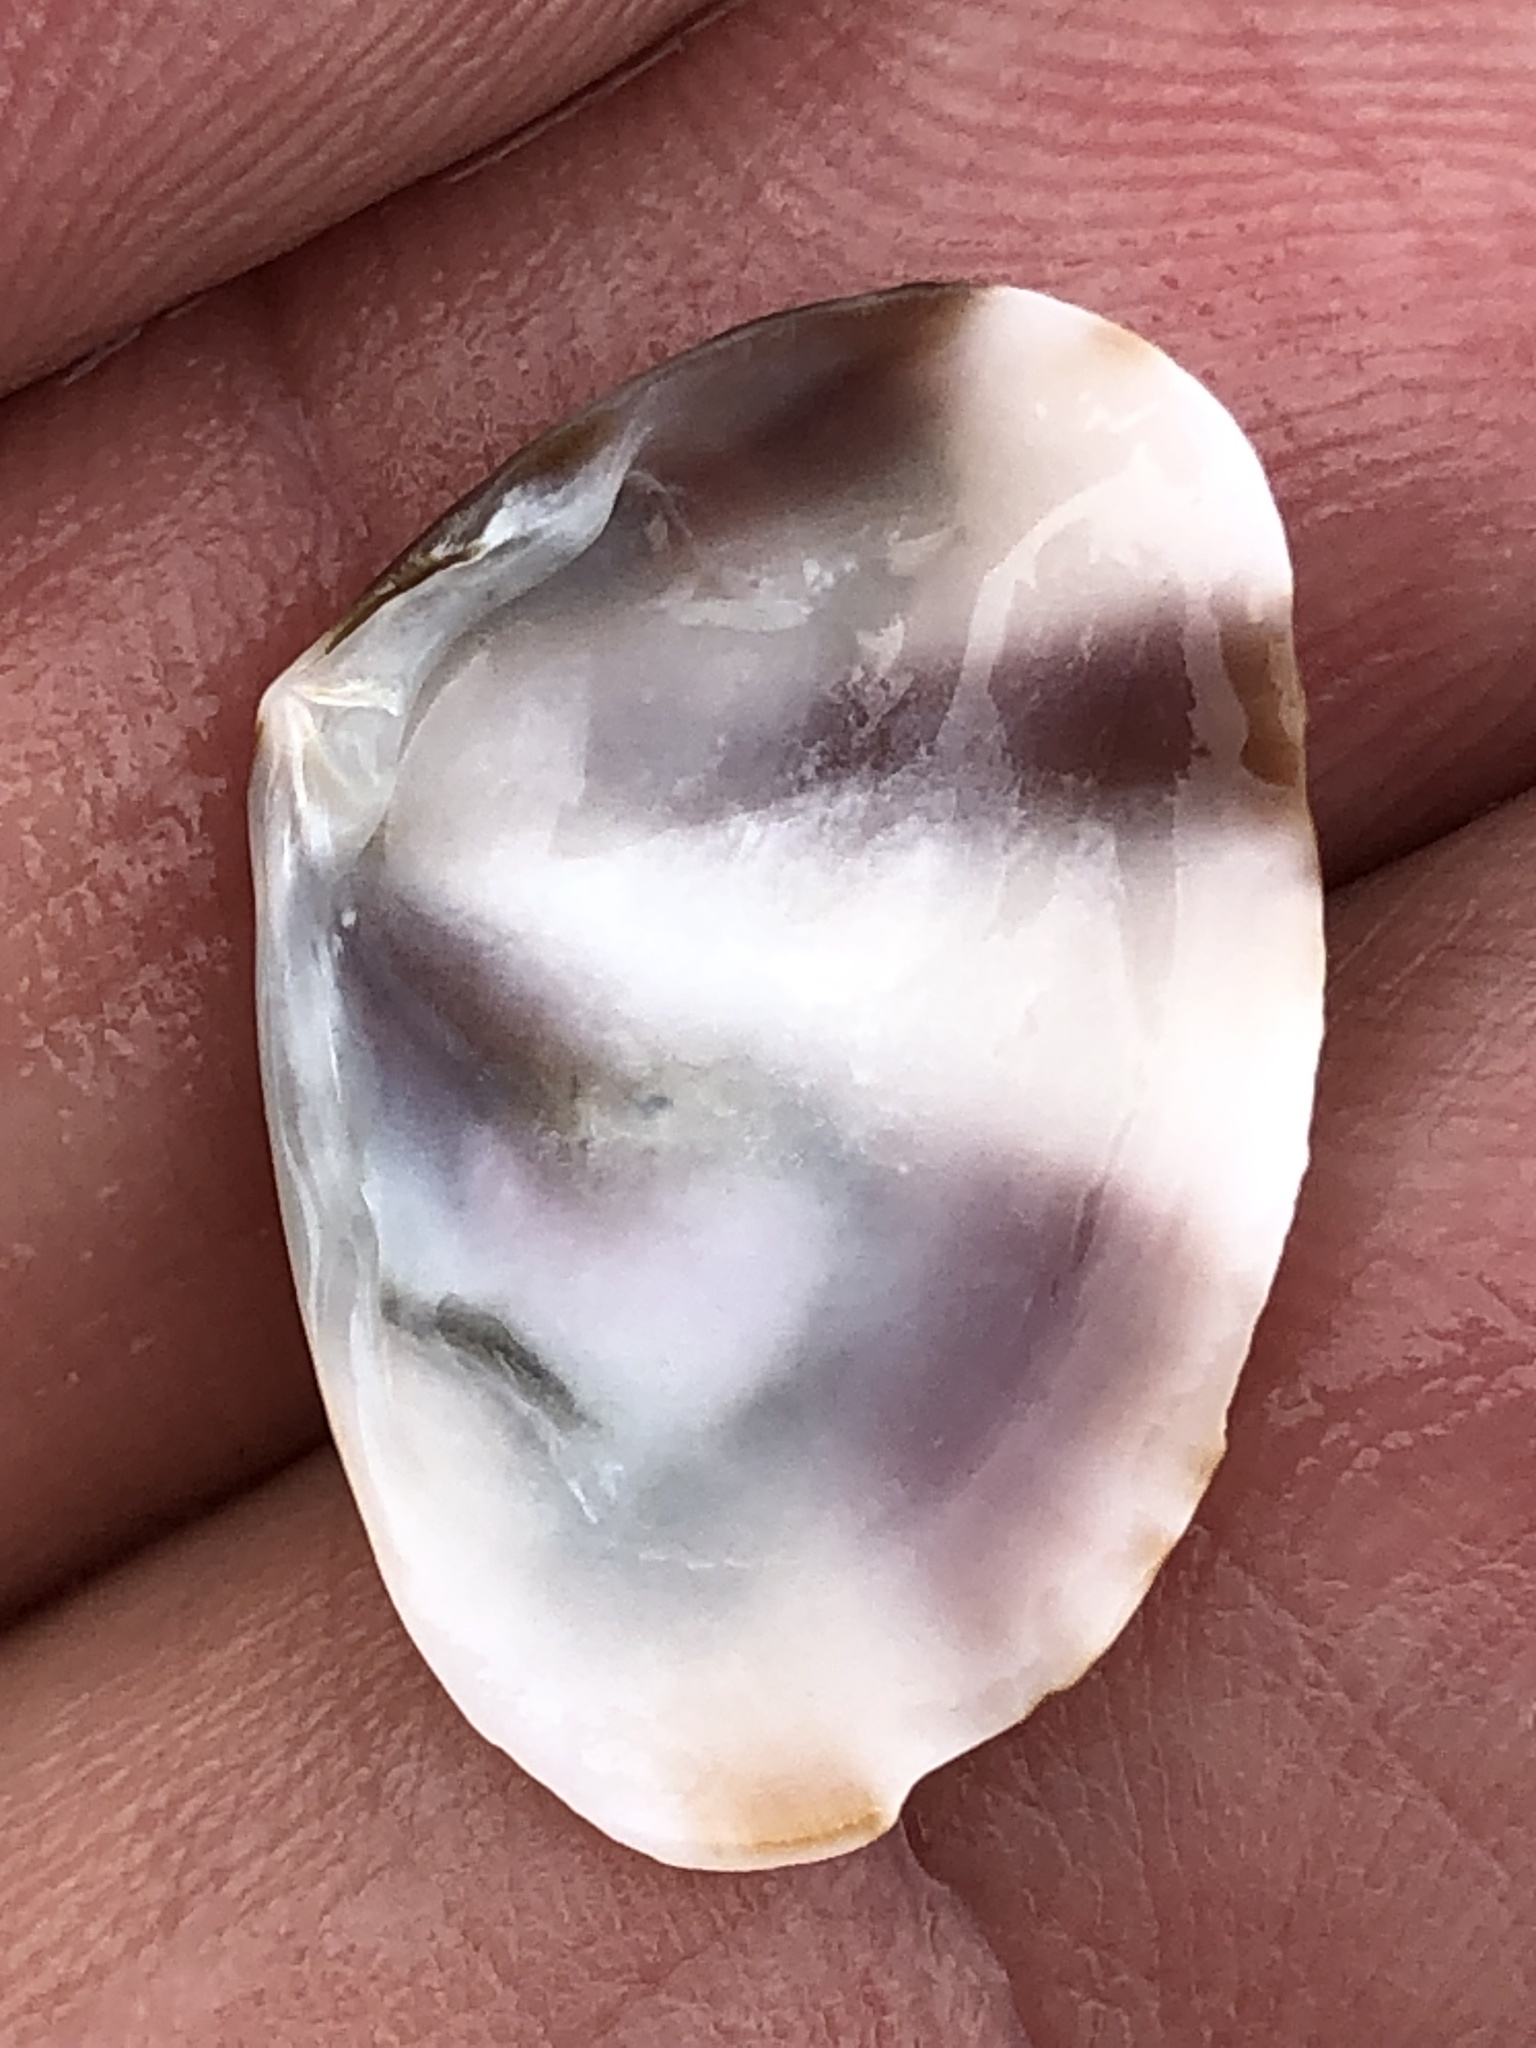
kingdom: Animalia
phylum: Mollusca
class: Bivalvia
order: Cardiida
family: Donacidae
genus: Donax
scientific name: Donax faba
